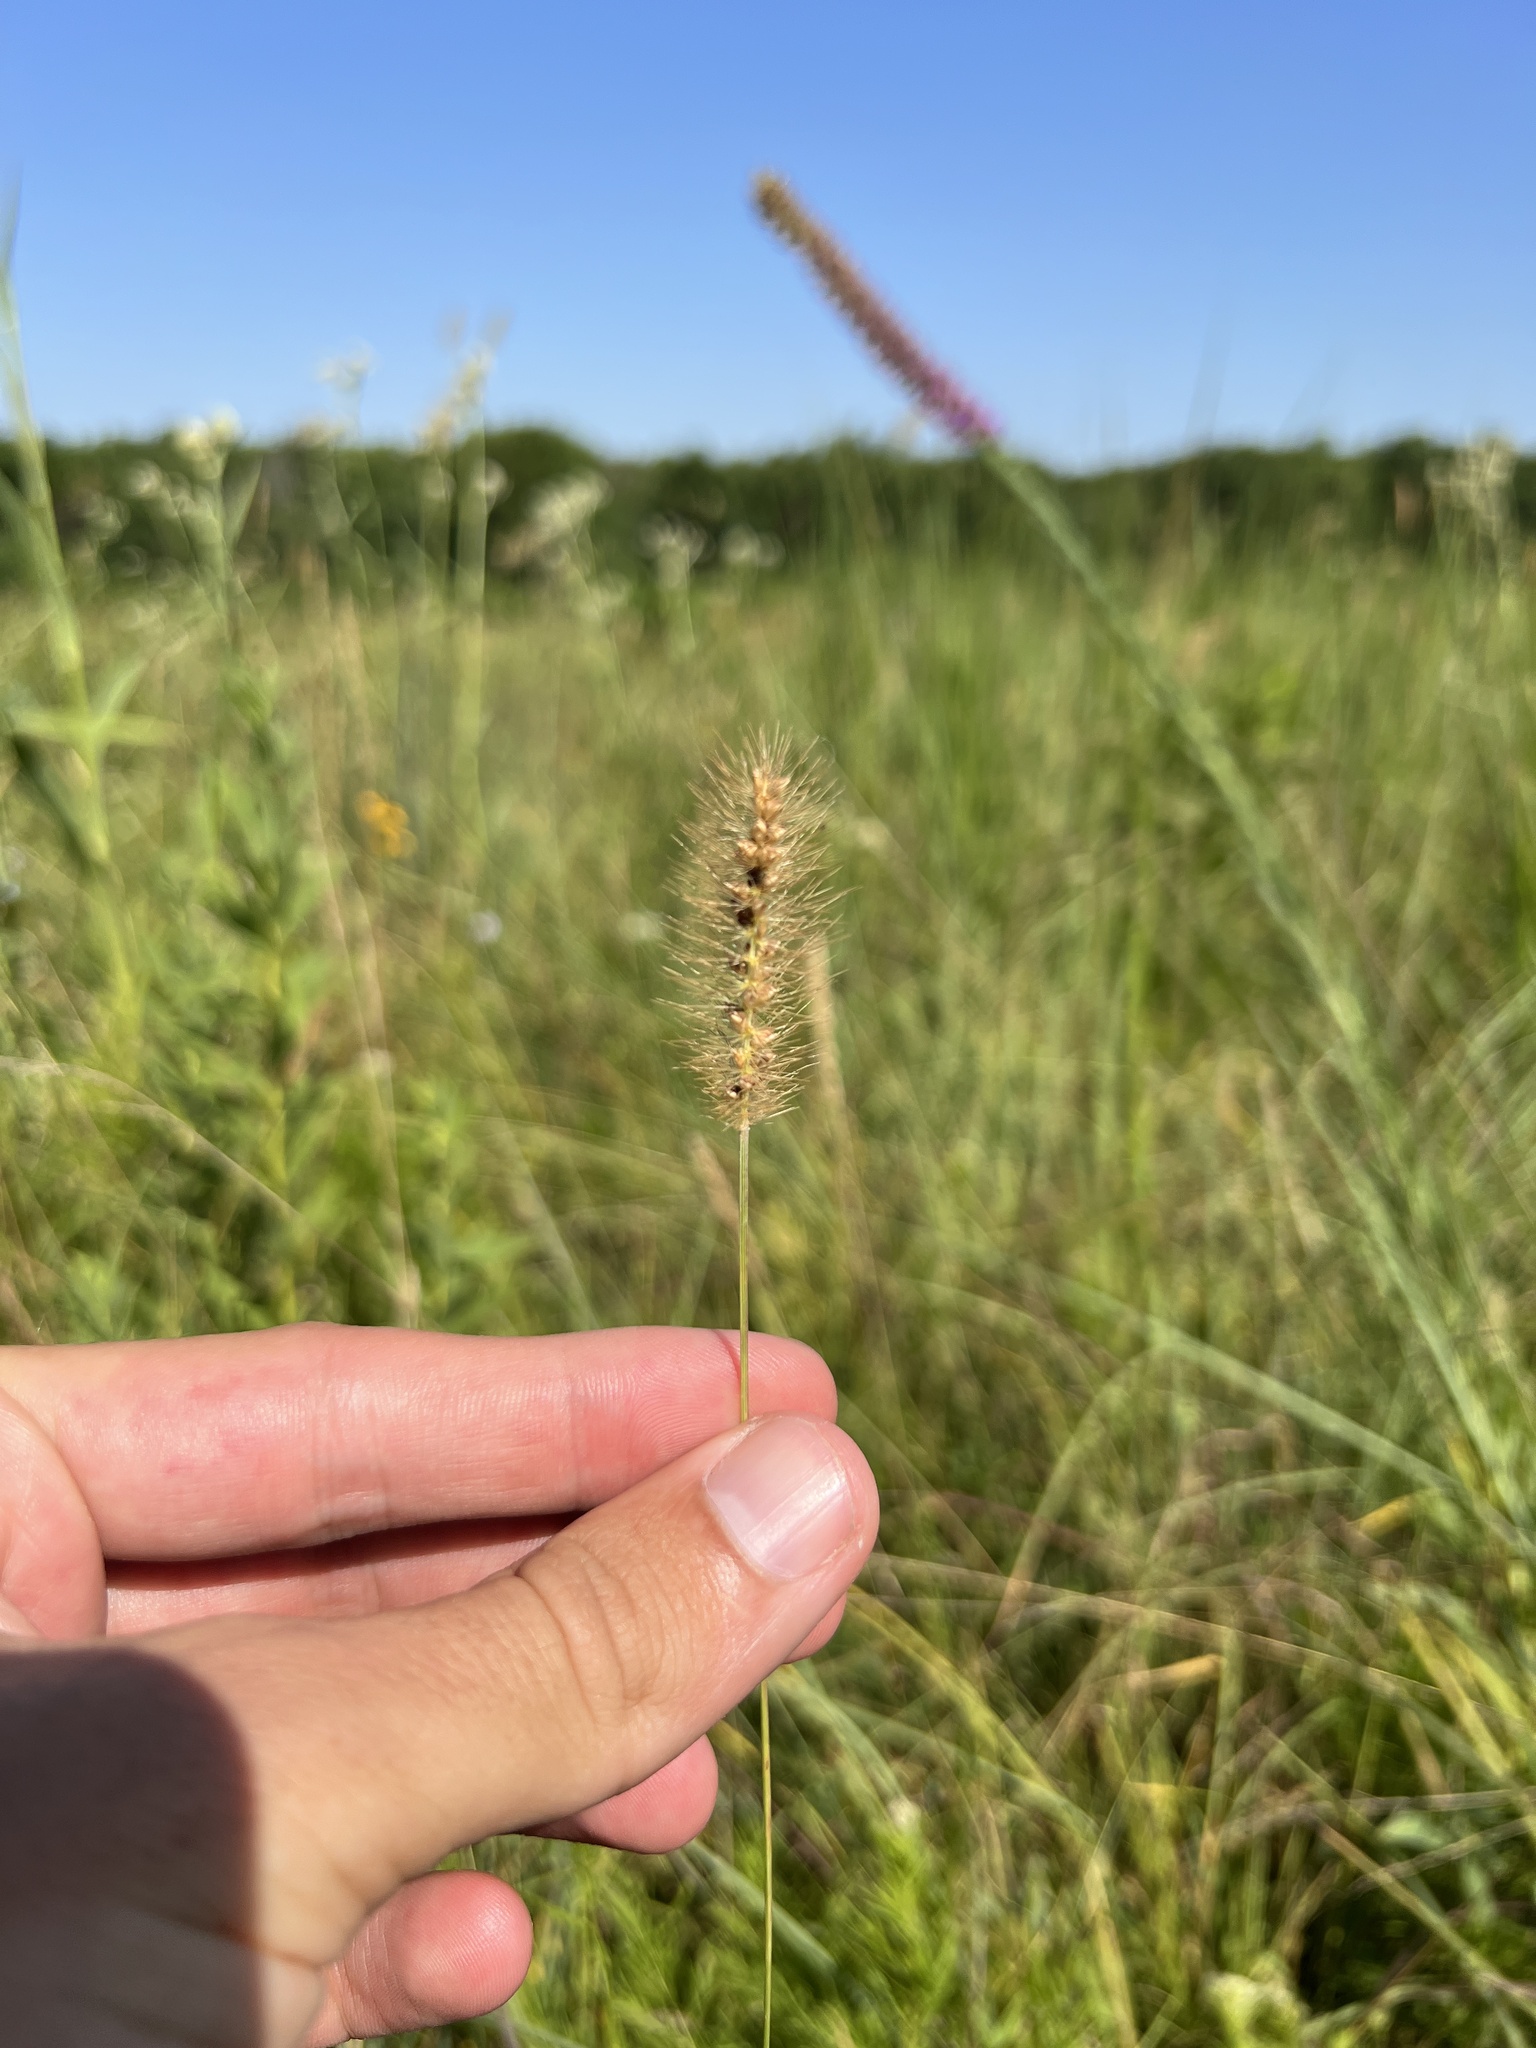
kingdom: Plantae
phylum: Tracheophyta
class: Liliopsida
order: Poales
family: Poaceae
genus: Setaria
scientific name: Setaria parviflora
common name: Knotroot bristle-grass
